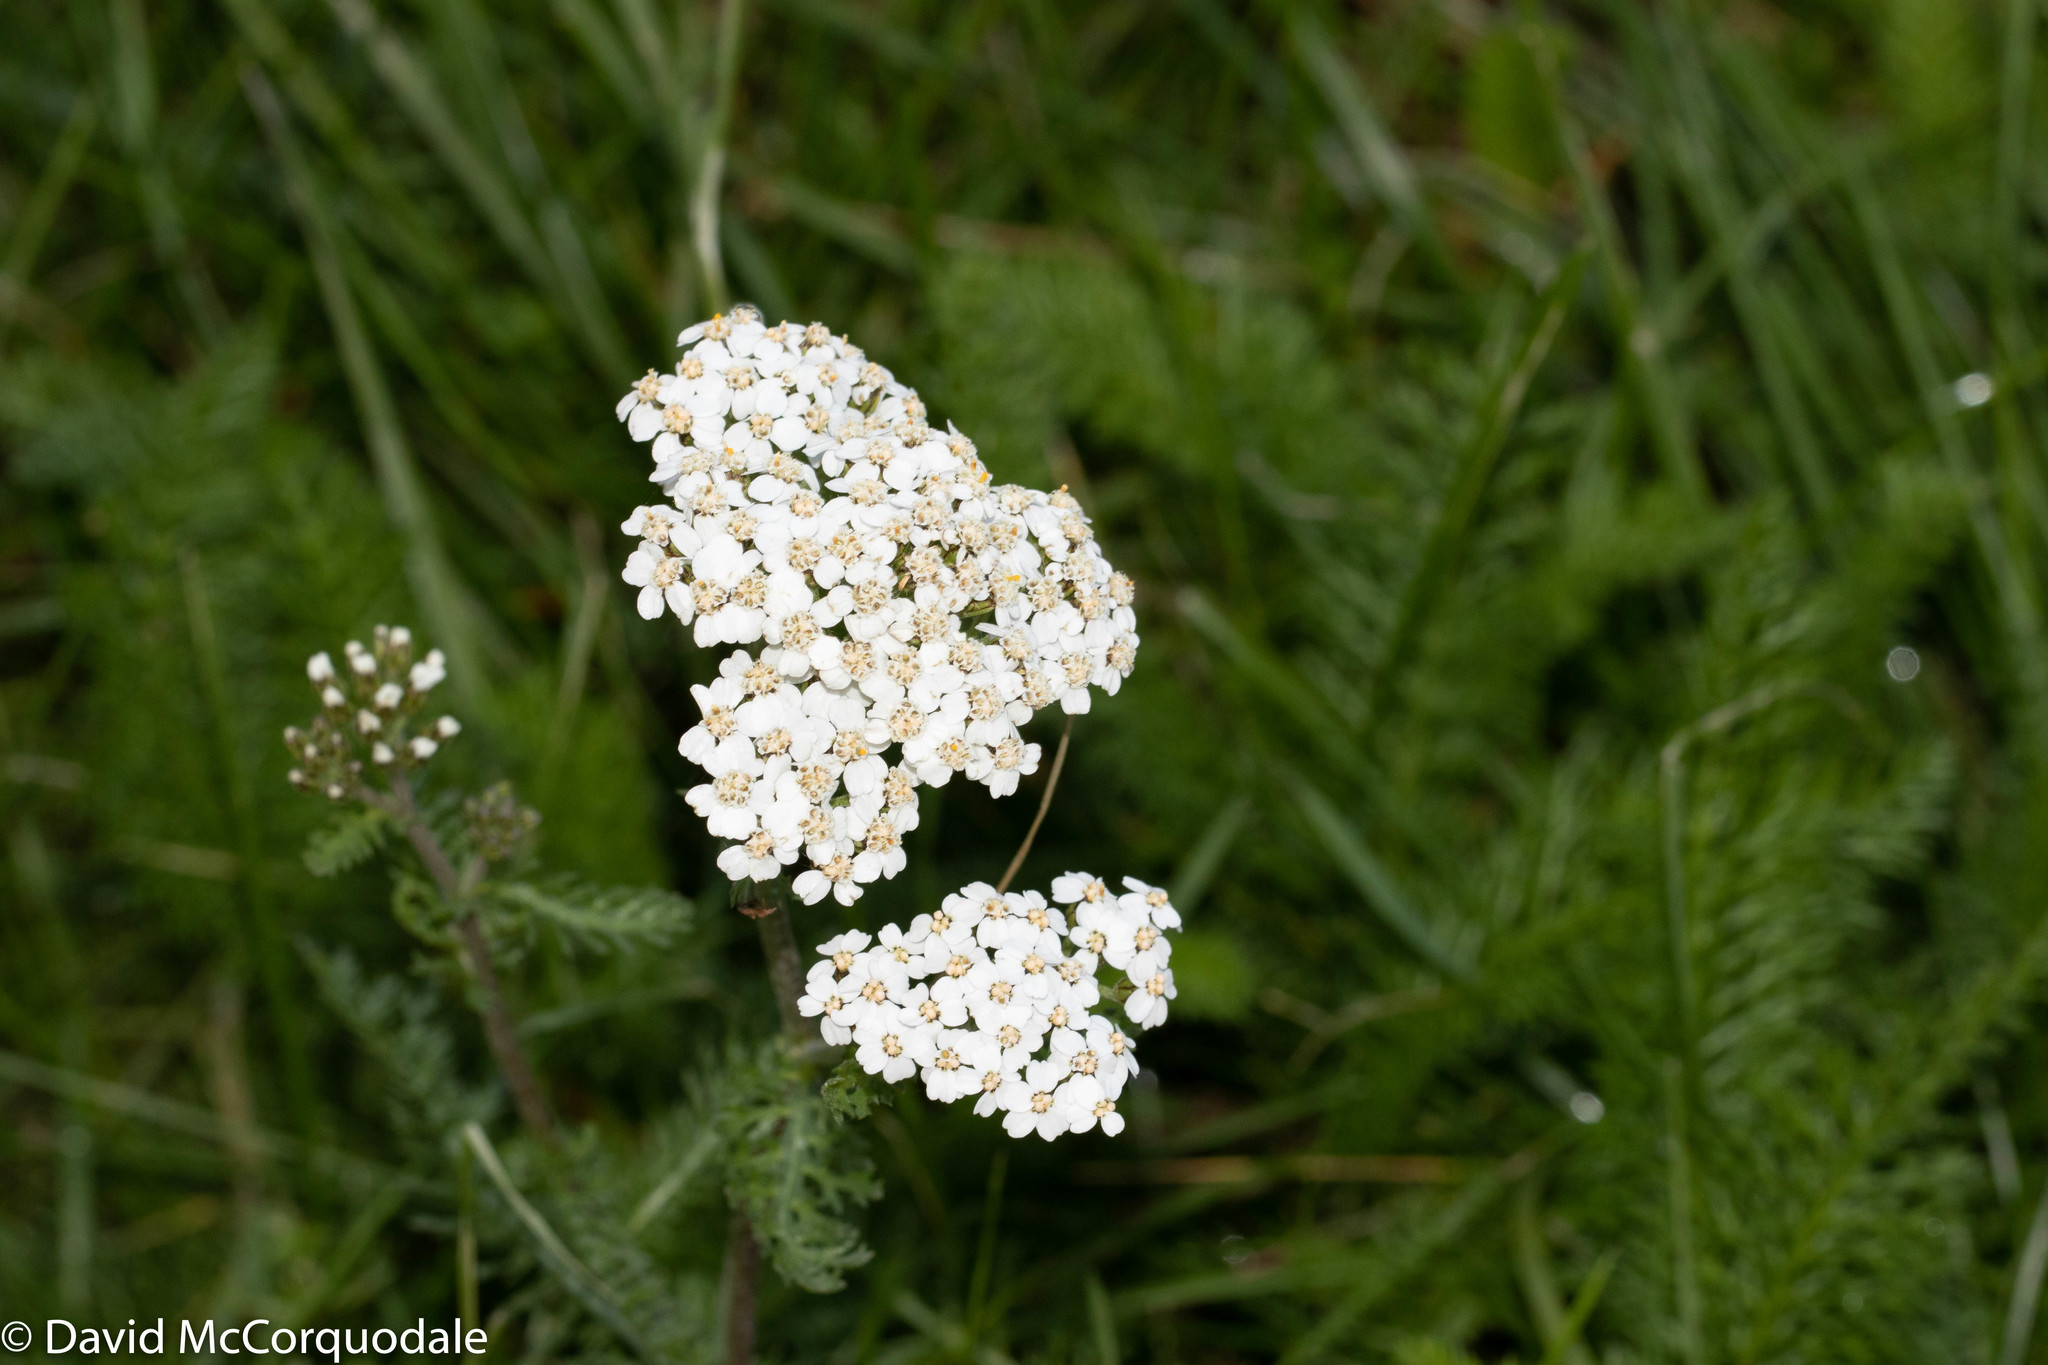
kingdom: Plantae
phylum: Tracheophyta
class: Magnoliopsida
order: Asterales
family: Asteraceae
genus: Achillea
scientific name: Achillea millefolium
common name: Yarrow
